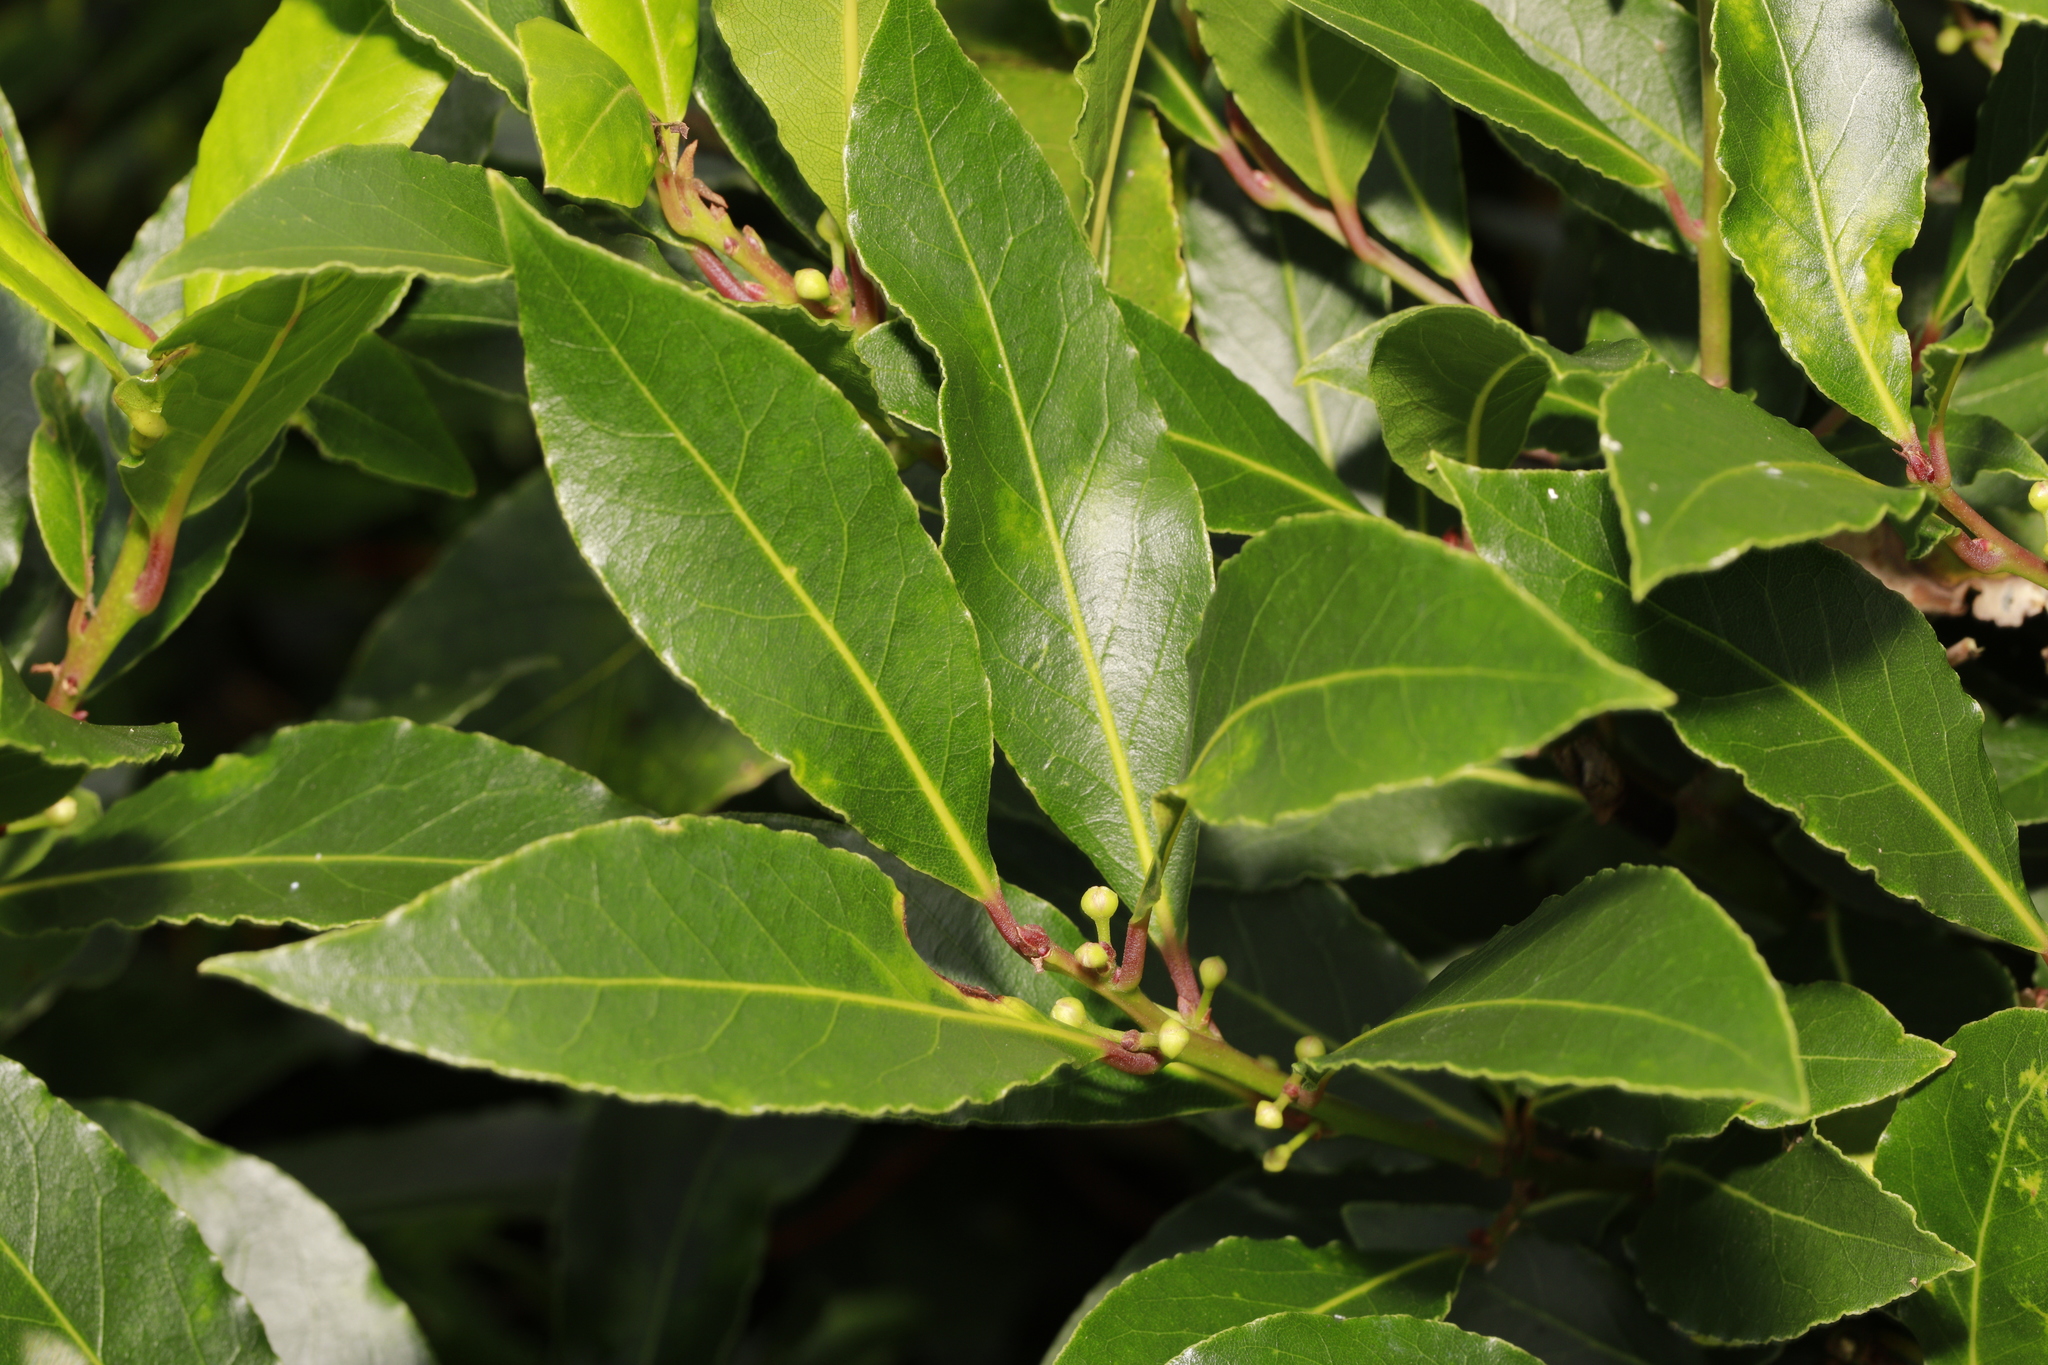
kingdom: Plantae
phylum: Tracheophyta
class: Magnoliopsida
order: Laurales
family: Lauraceae
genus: Laurus
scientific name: Laurus nobilis
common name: Bay
